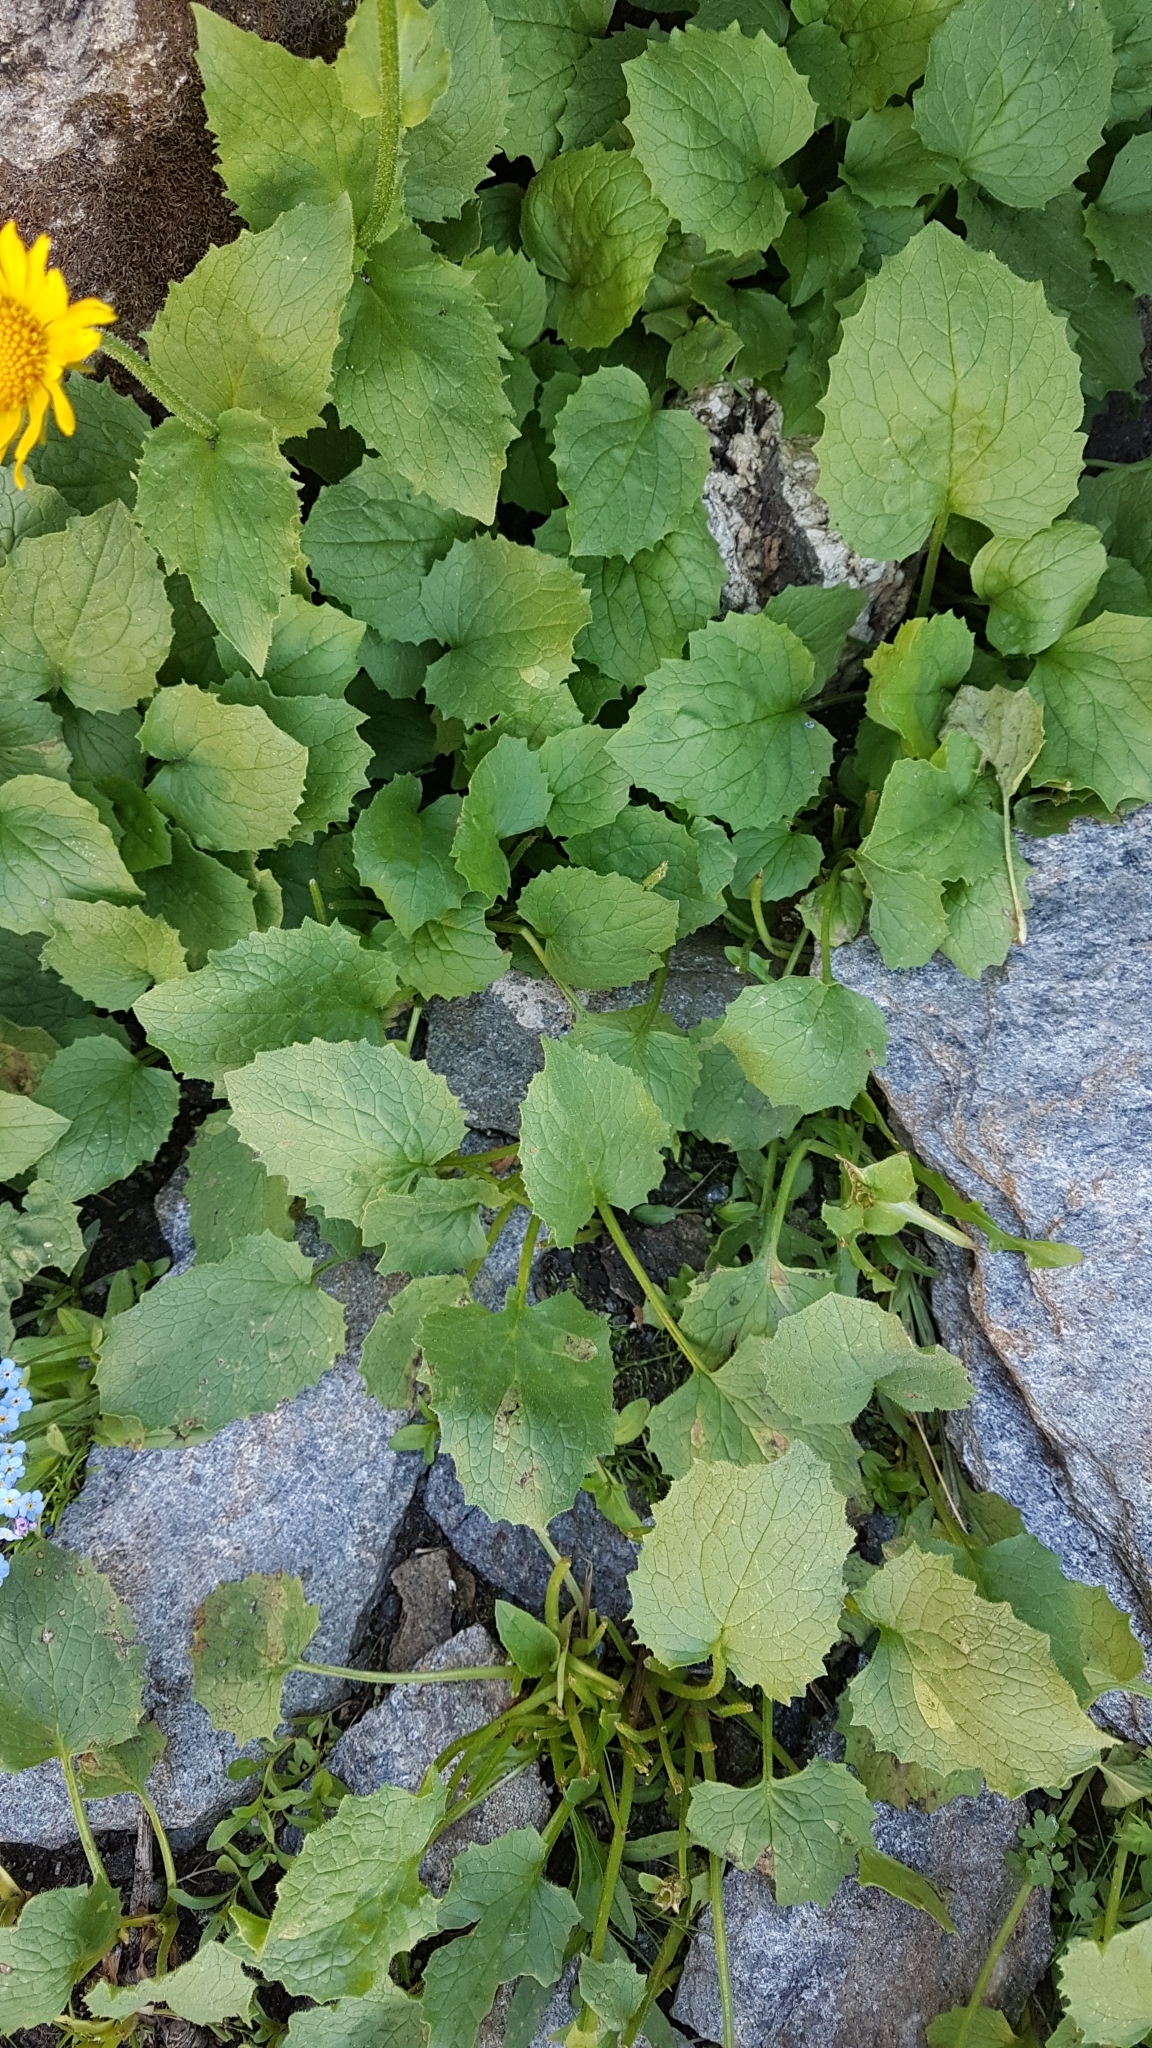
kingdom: Plantae
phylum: Tracheophyta
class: Magnoliopsida
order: Asterales
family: Asteraceae
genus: Doronicum
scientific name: Doronicum grandiflorum
